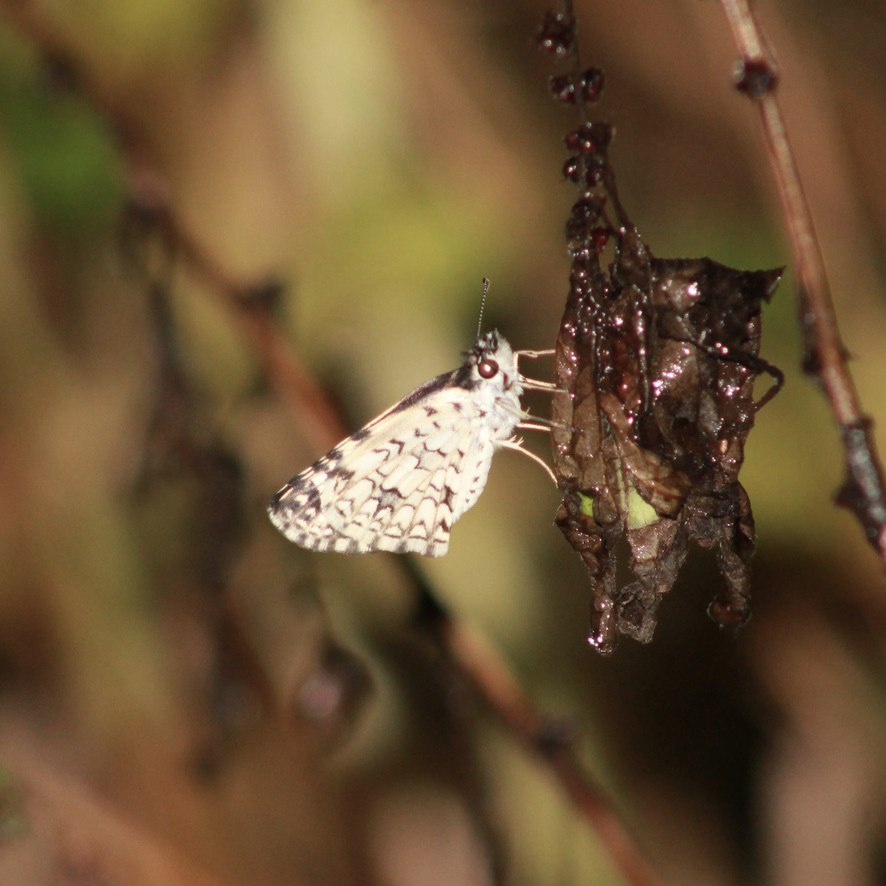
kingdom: Animalia
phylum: Arthropoda
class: Insecta
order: Lepidoptera
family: Hesperiidae
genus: Pyrgus
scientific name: Pyrgus oileus
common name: Tropical checkered-skipper
